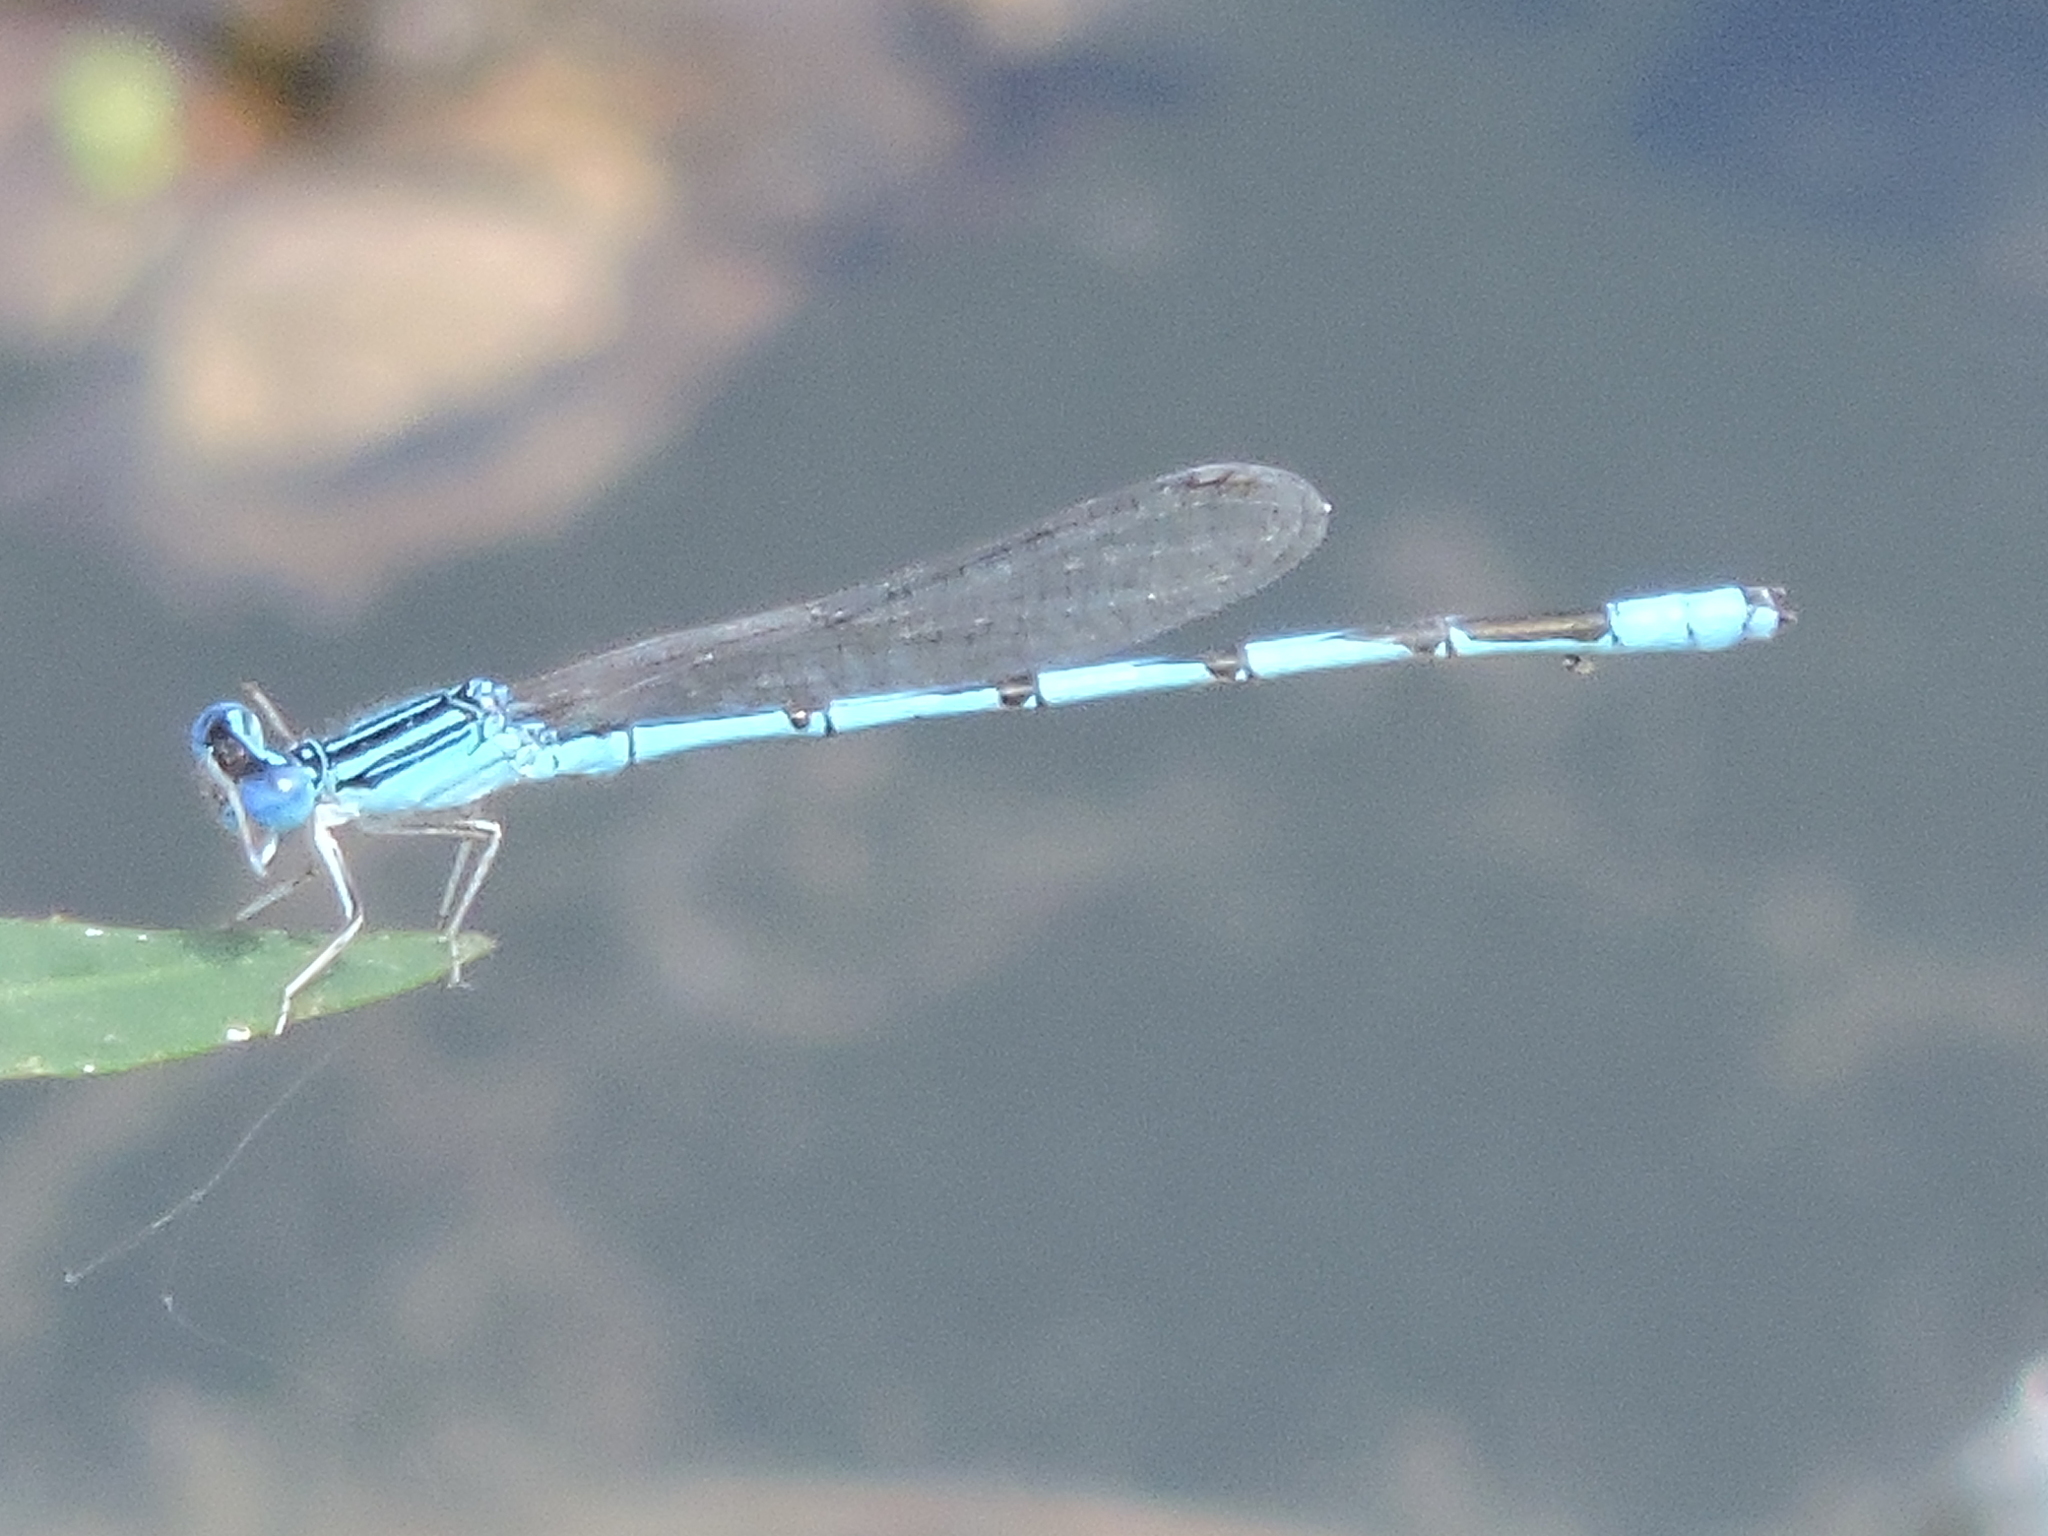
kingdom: Animalia
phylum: Arthropoda
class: Insecta
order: Odonata
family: Coenagrionidae
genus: Enallagma
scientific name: Enallagma basidens
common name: Double-striped bluet
